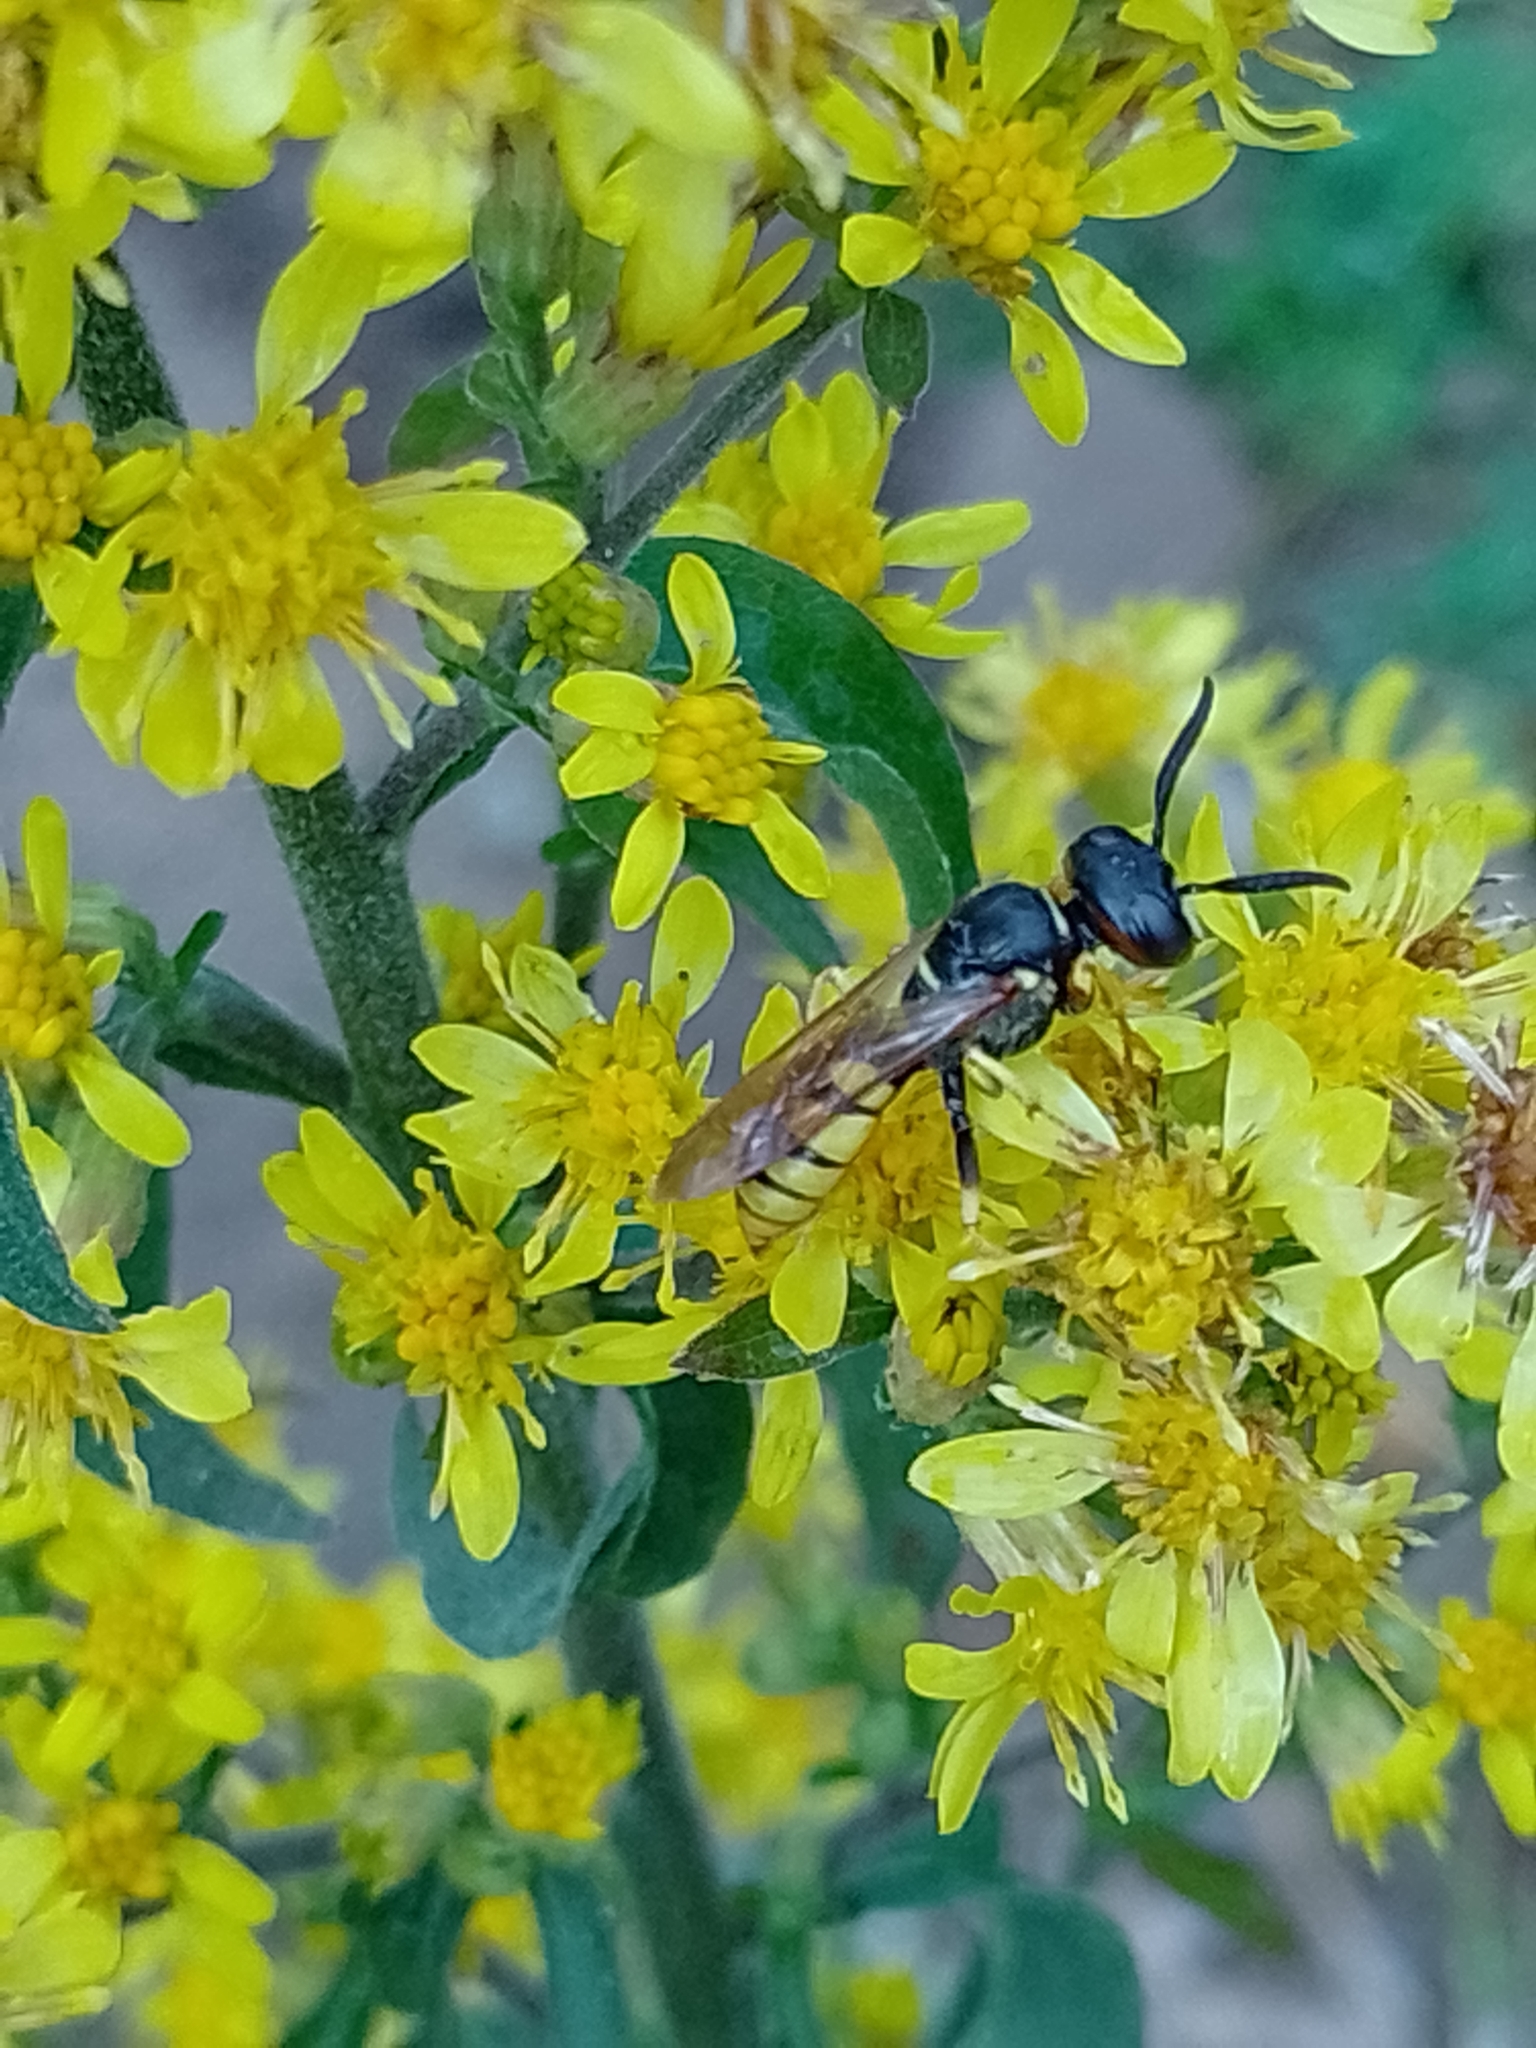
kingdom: Animalia
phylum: Arthropoda
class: Insecta
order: Hymenoptera
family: Crabronidae
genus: Philanthus
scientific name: Philanthus triangulum
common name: Bee wolf
